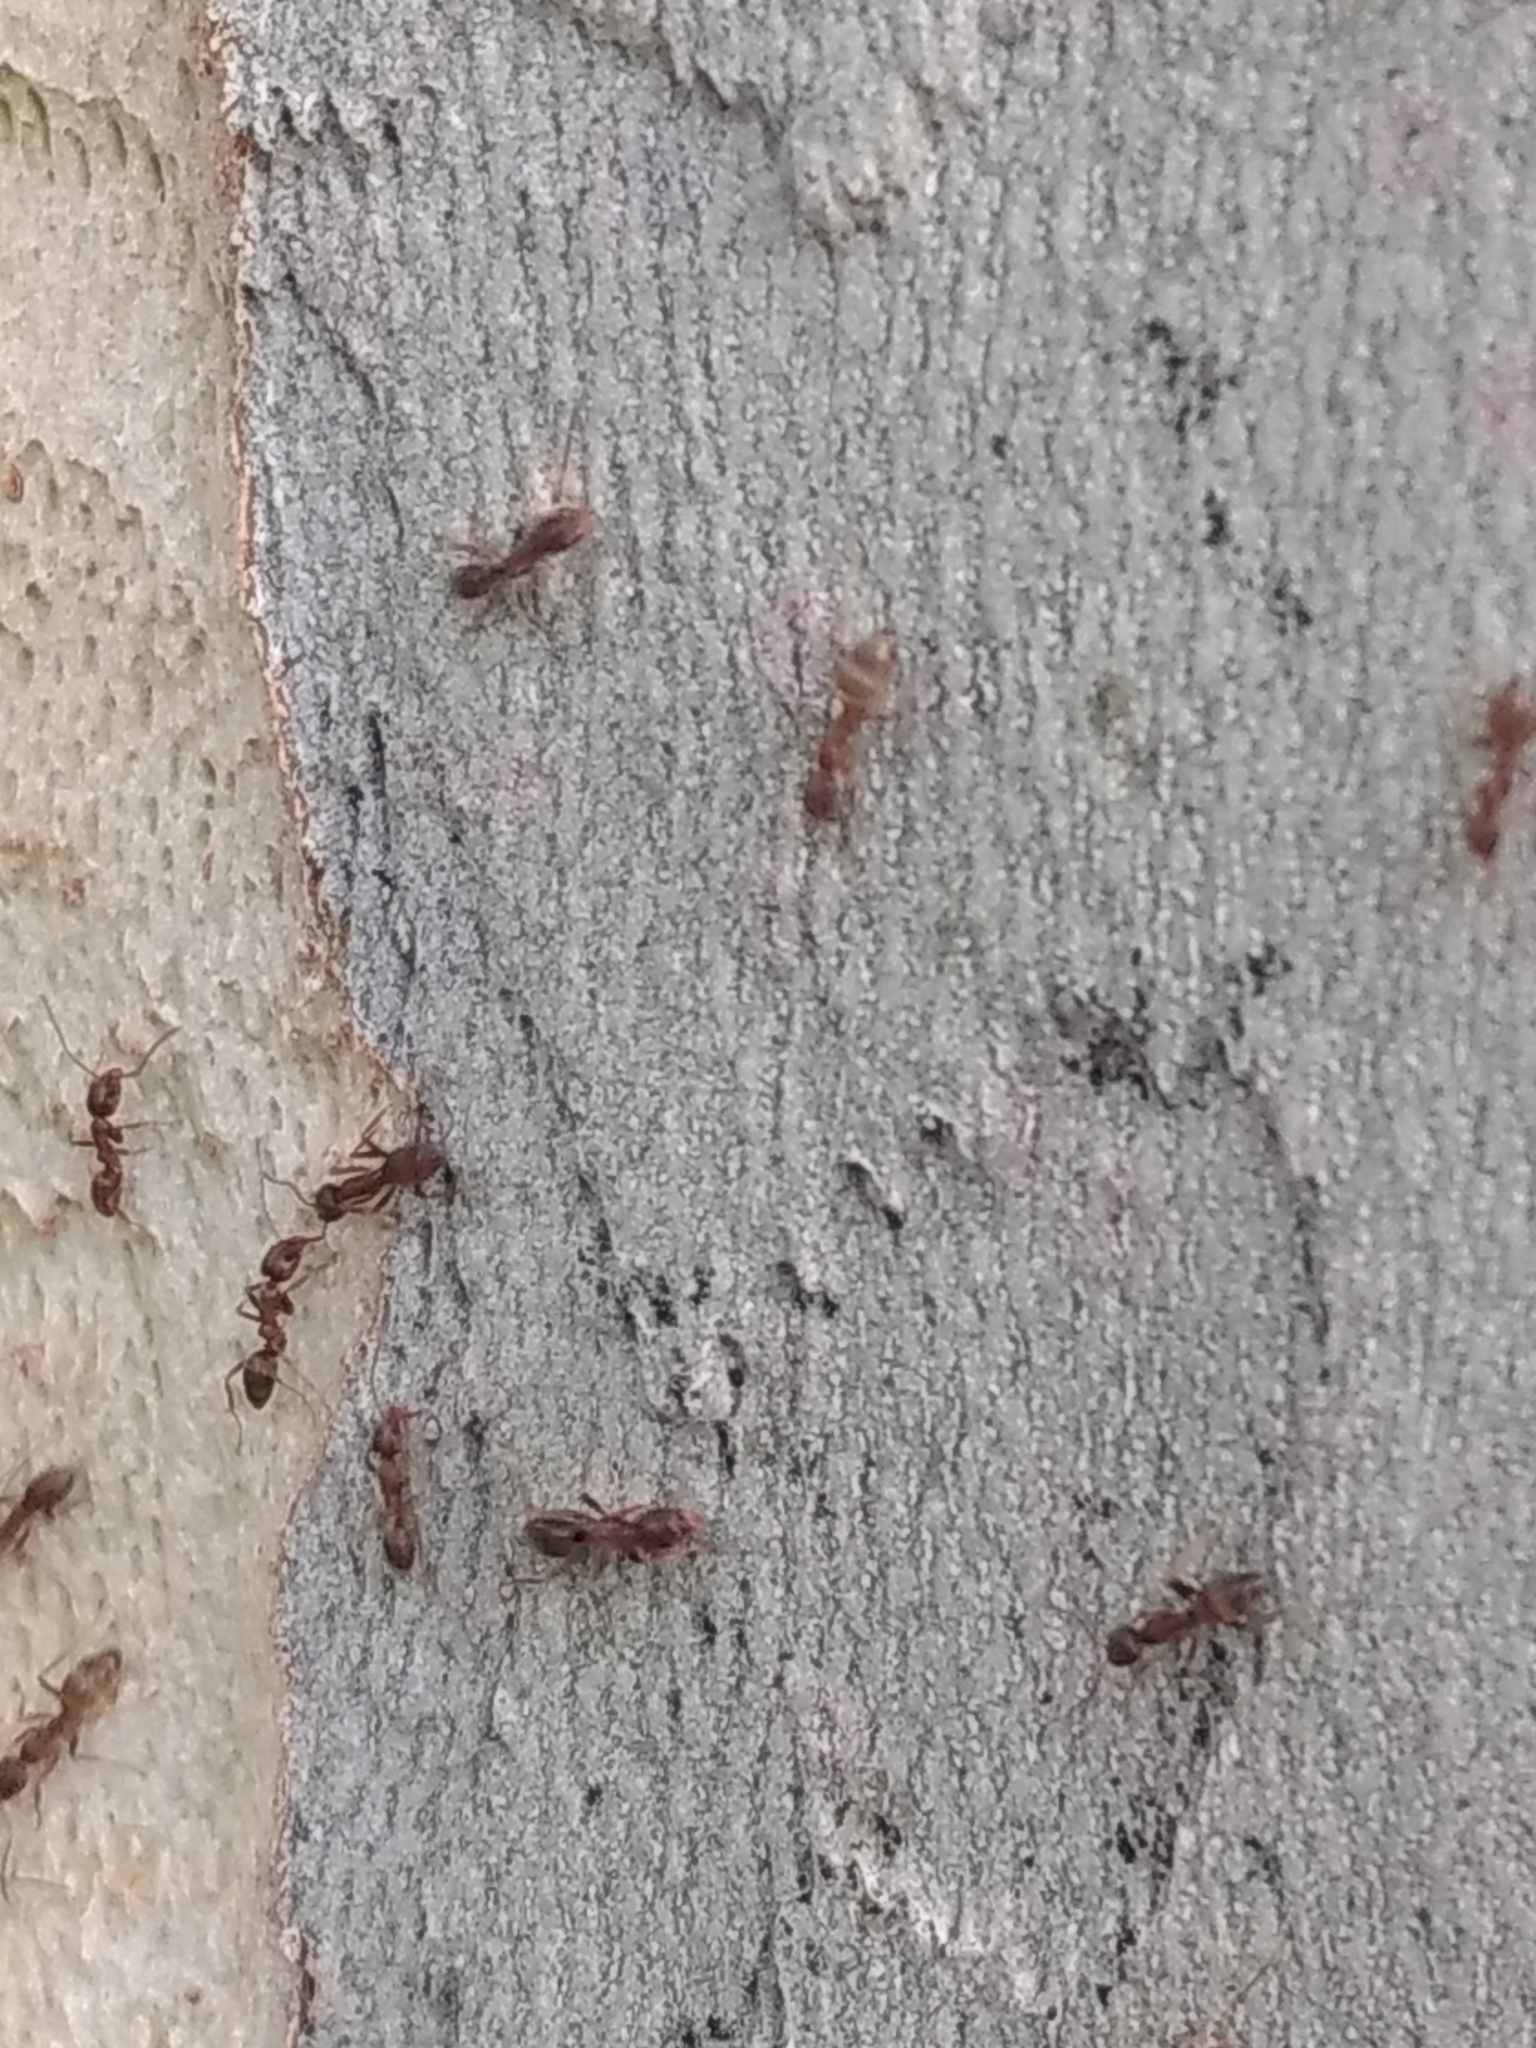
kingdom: Animalia
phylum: Arthropoda
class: Insecta
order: Hymenoptera
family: Formicidae
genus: Linepithema
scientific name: Linepithema humile
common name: Argentine ant
